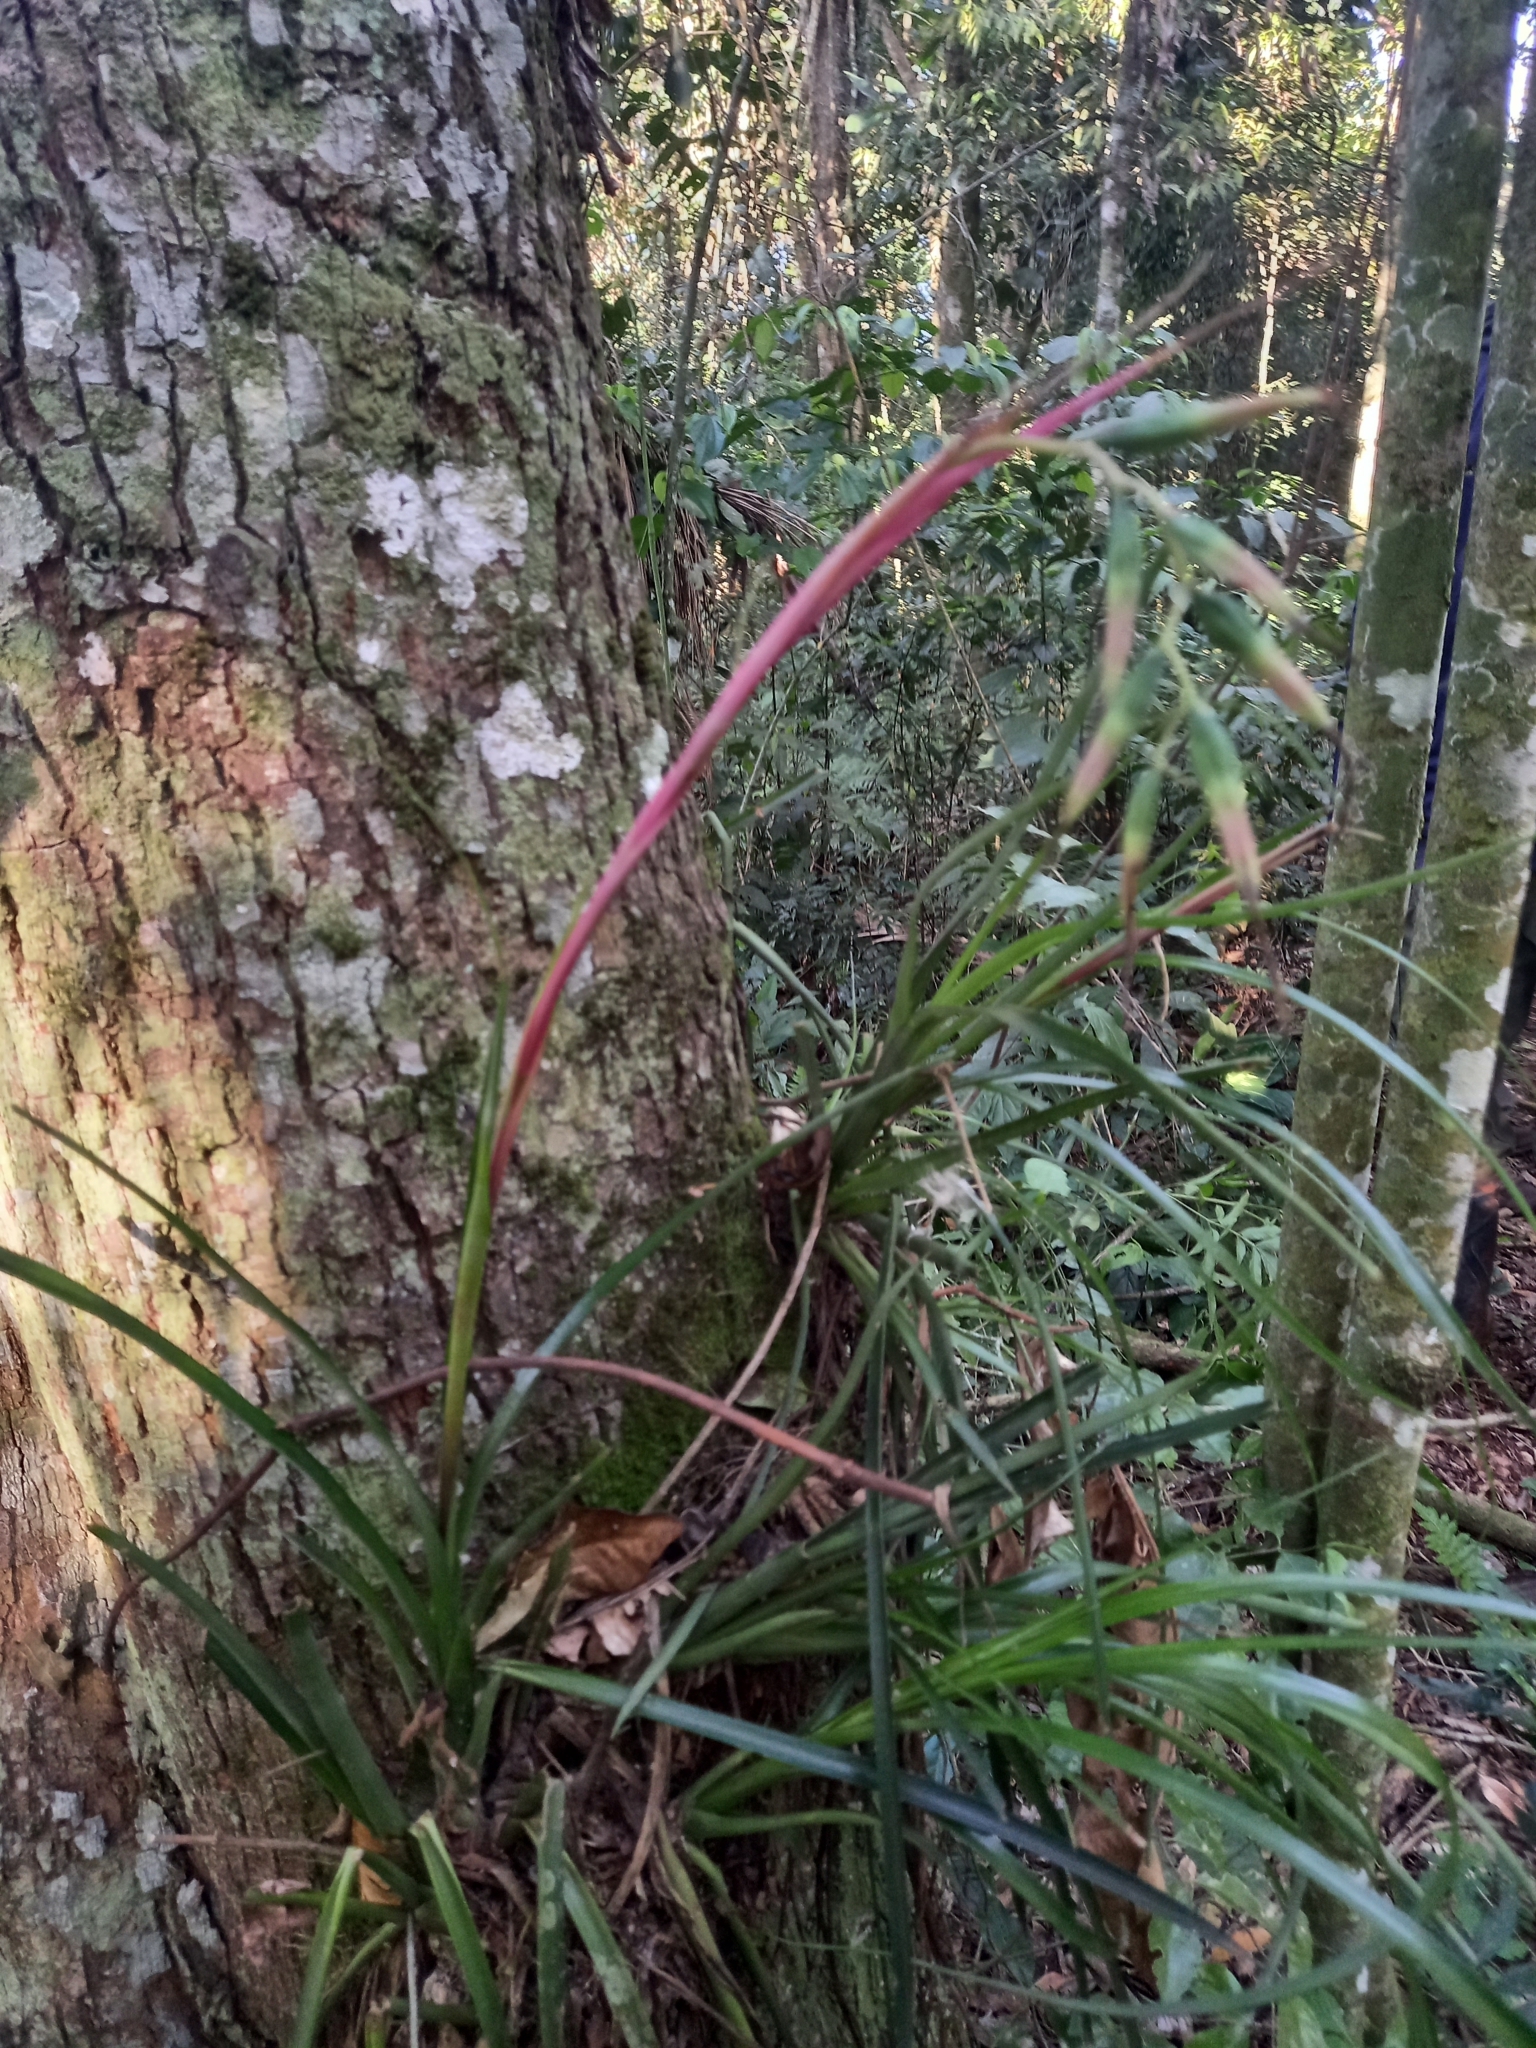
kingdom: Plantae
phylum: Tracheophyta
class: Liliopsida
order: Poales
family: Bromeliaceae
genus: Billbergia
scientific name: Billbergia nutans
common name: Friendship-plant
